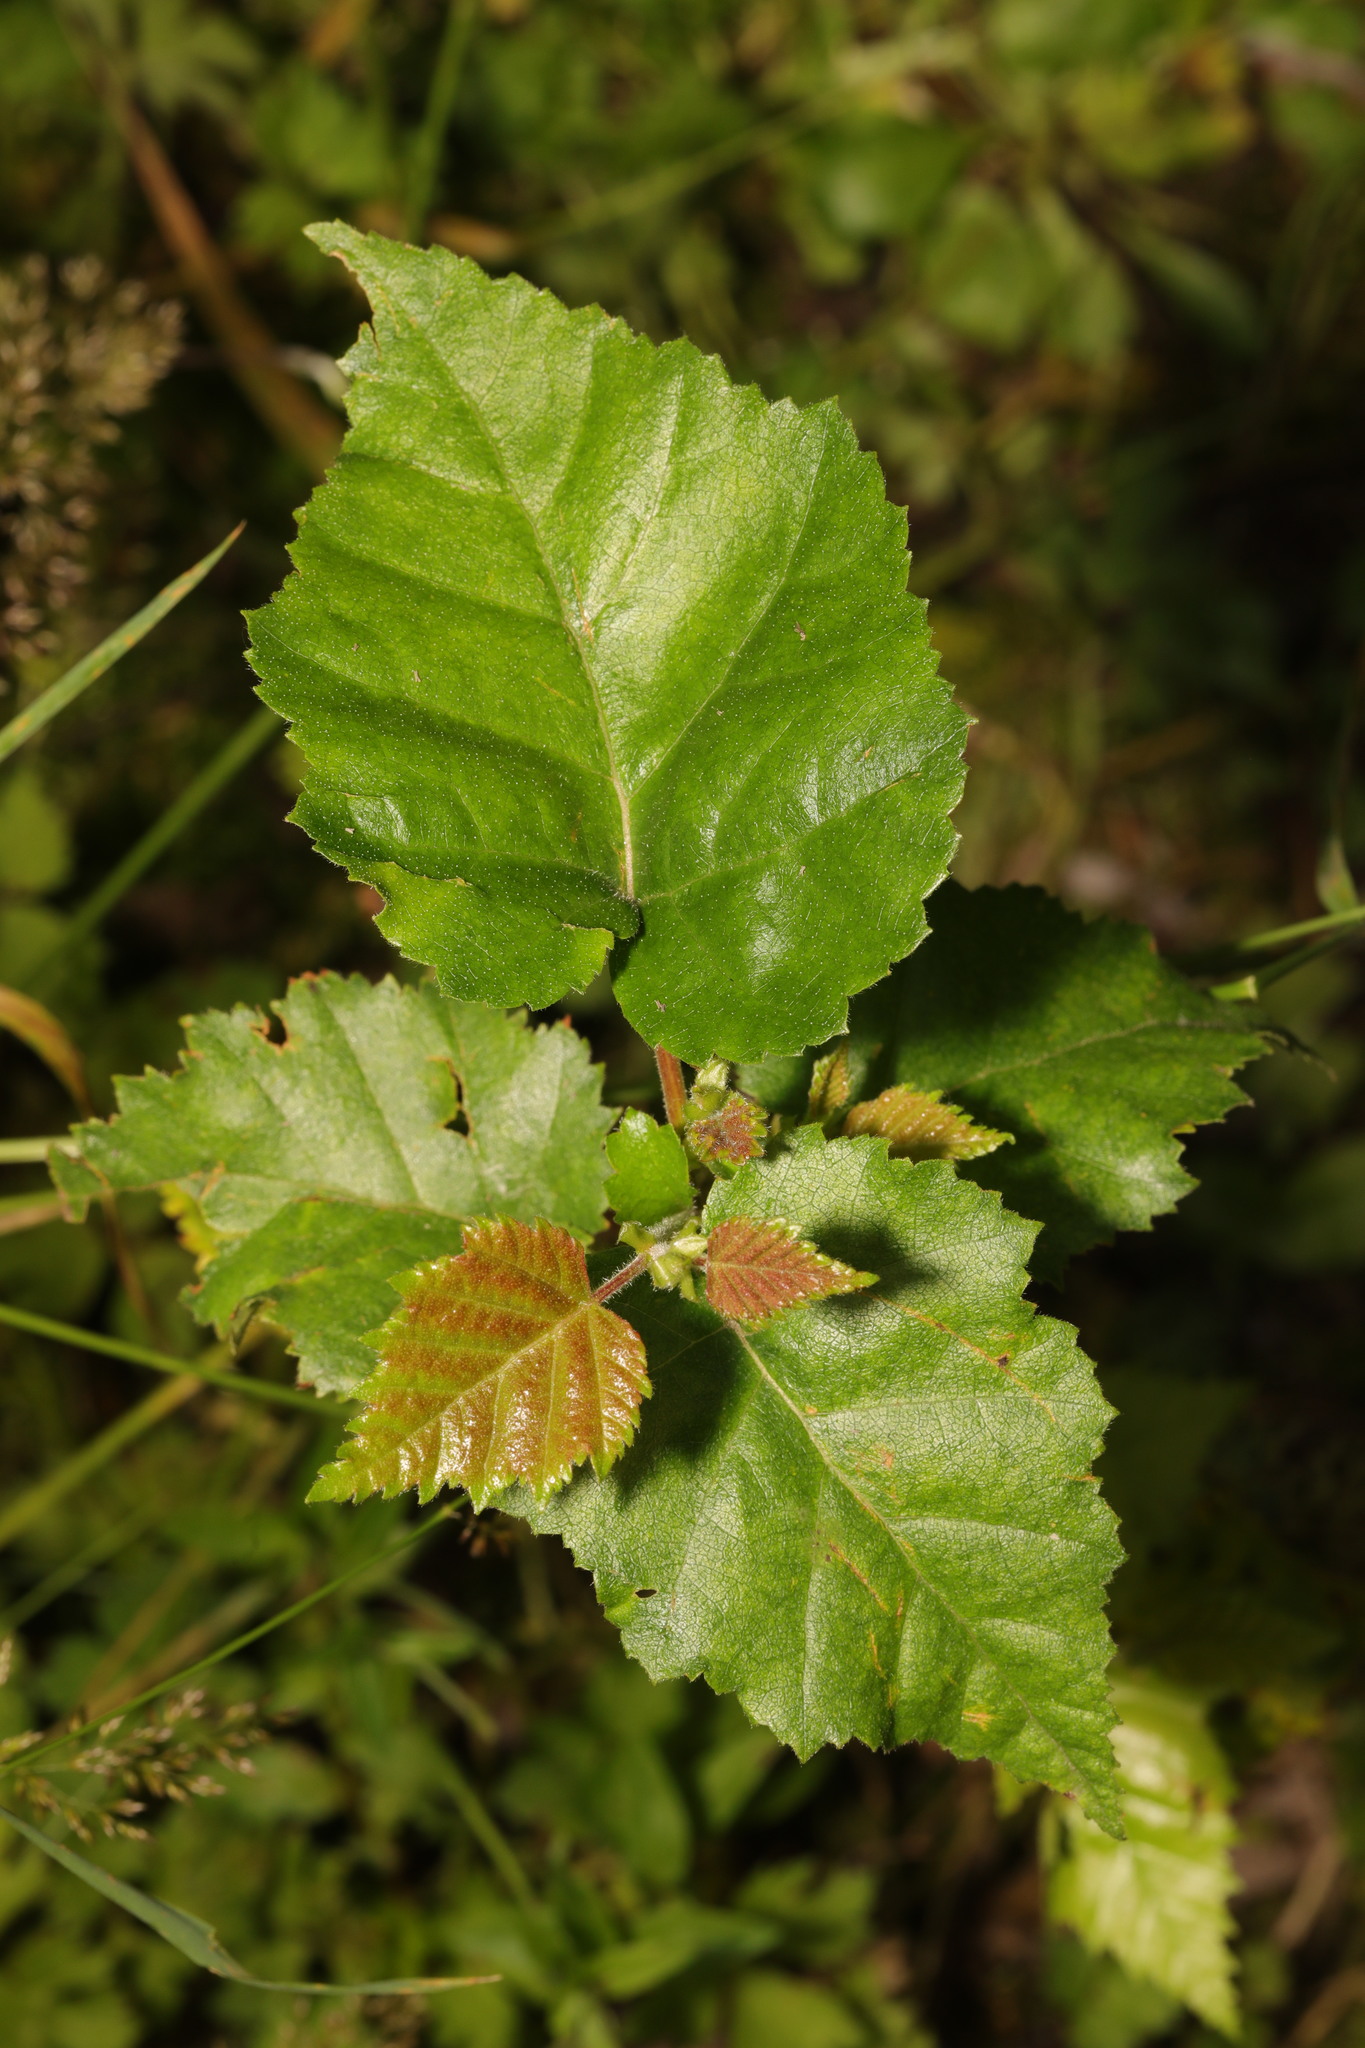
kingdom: Plantae
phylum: Tracheophyta
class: Magnoliopsida
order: Fagales
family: Betulaceae
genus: Betula
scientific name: Betula pubescens
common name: Downy birch
